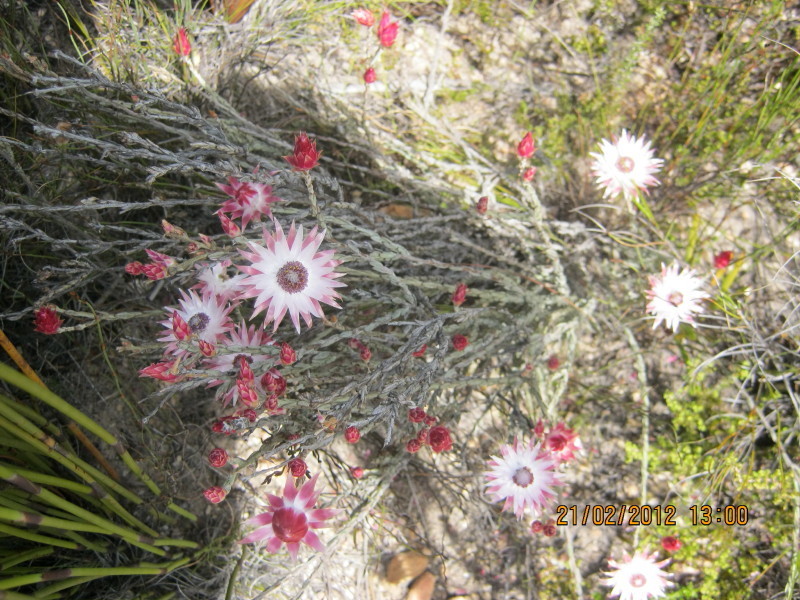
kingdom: Plantae
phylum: Tracheophyta
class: Magnoliopsida
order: Asterales
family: Asteraceae
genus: Syncarpha
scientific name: Syncarpha canescens
